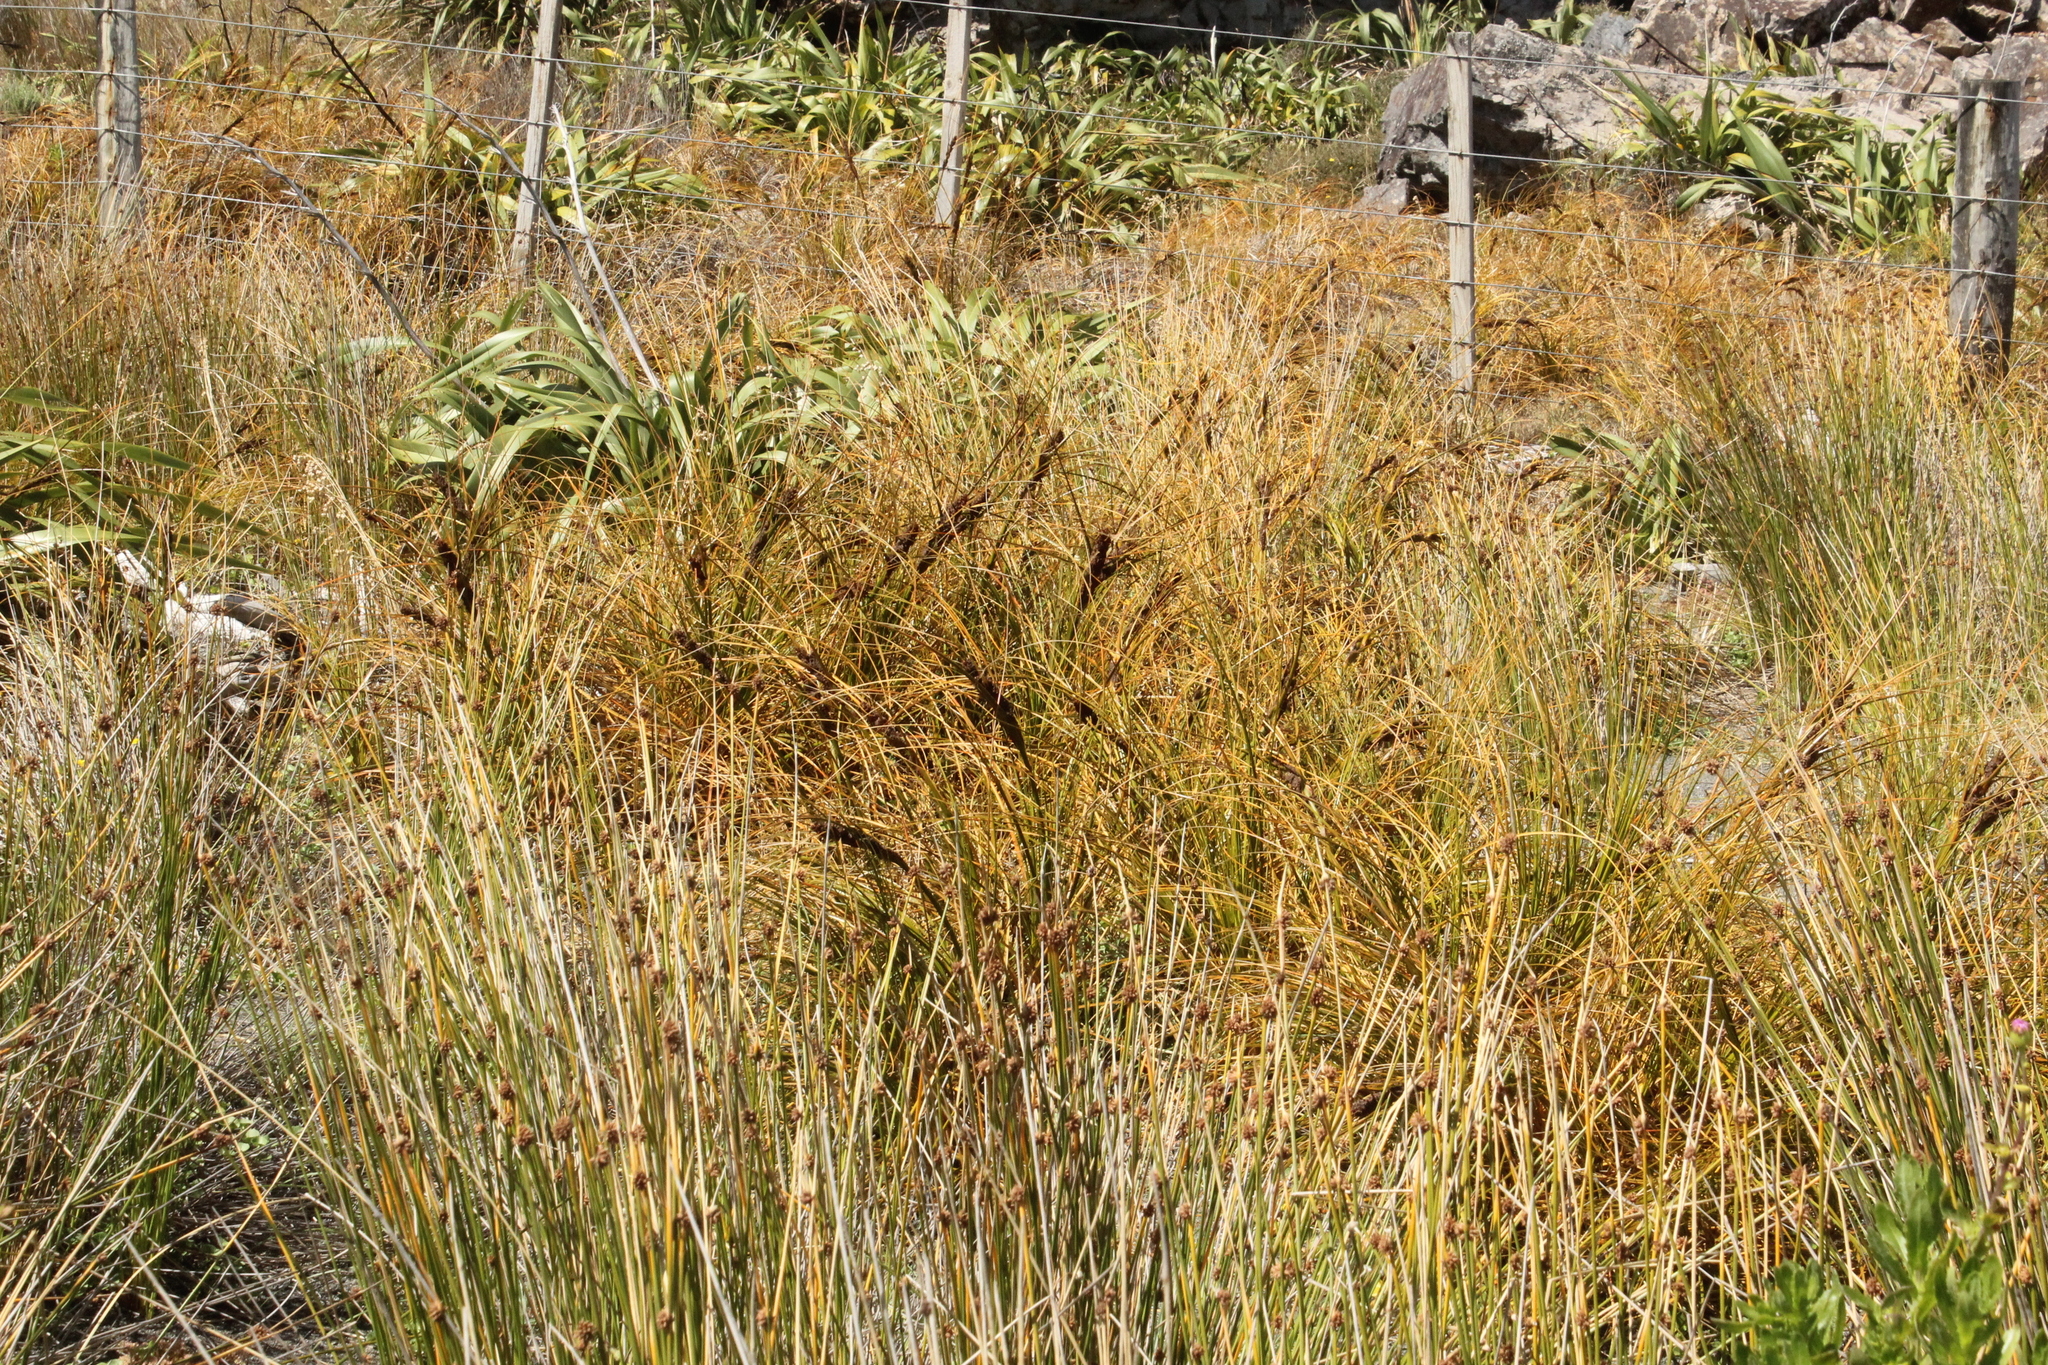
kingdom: Plantae
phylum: Tracheophyta
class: Liliopsida
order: Poales
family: Cyperaceae
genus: Ficinia
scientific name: Ficinia spiralis
